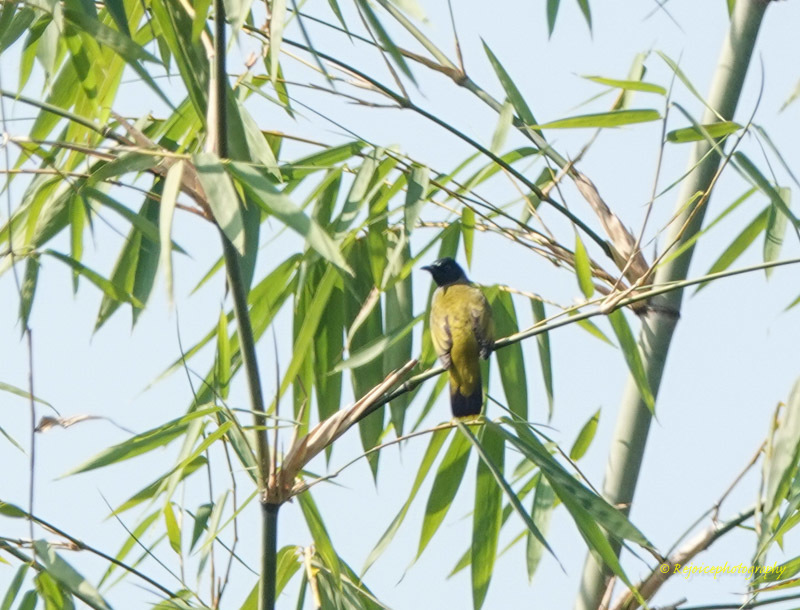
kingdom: Animalia
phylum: Chordata
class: Aves
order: Passeriformes
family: Pycnonotidae
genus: Microtarsus
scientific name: Microtarsus
